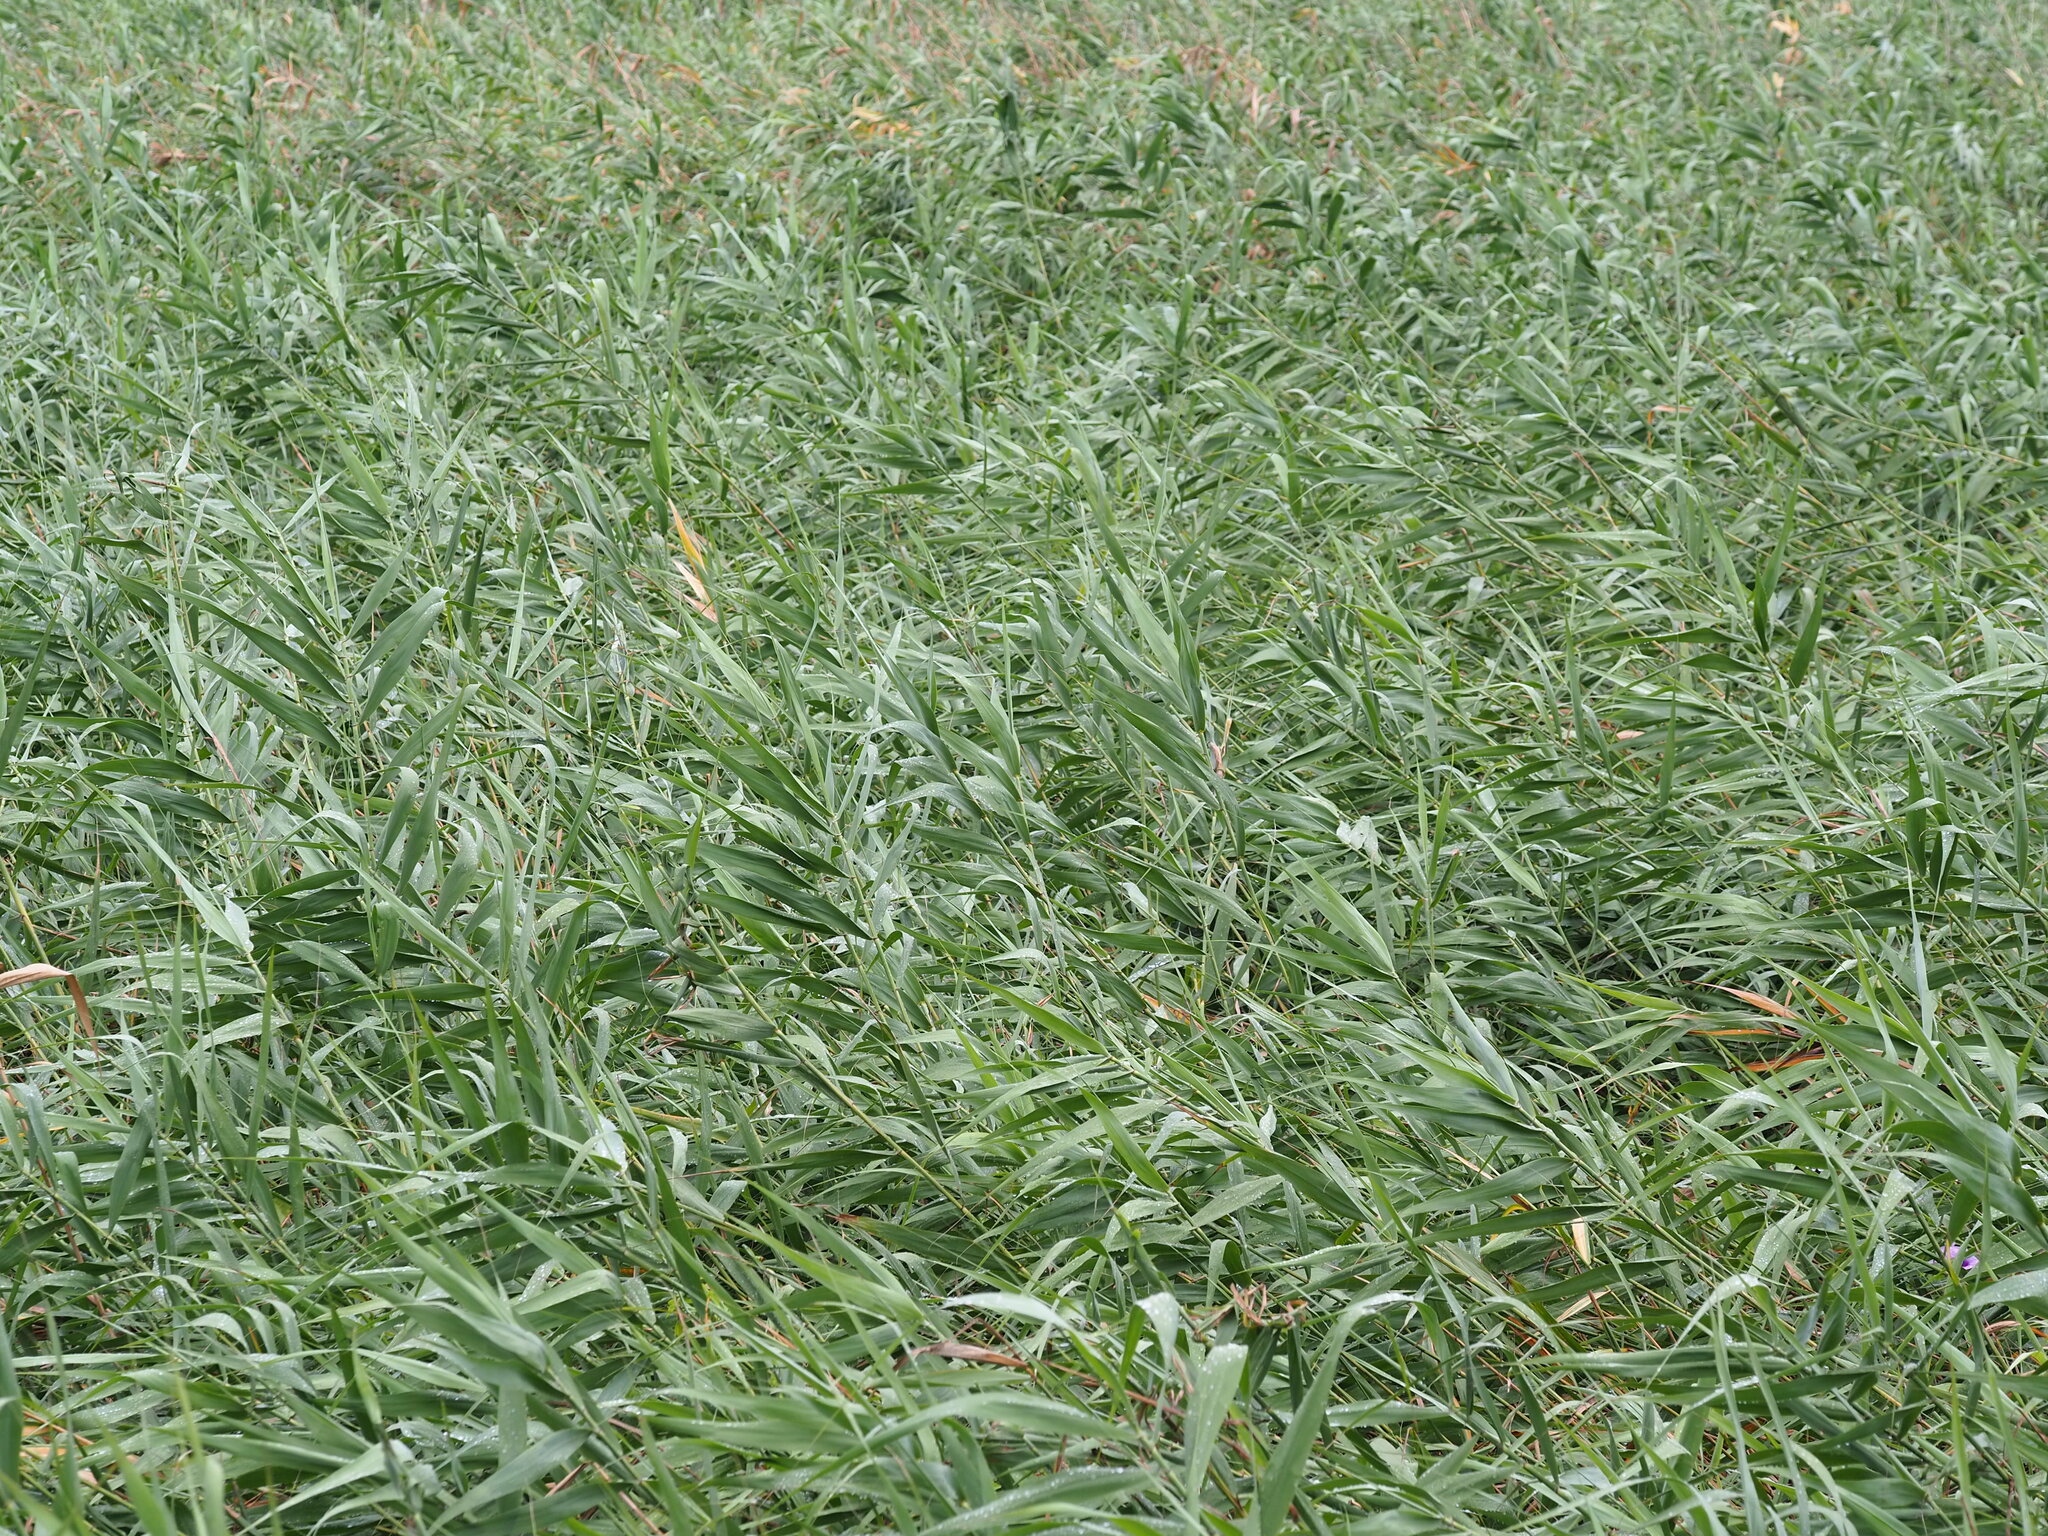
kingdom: Plantae
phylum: Tracheophyta
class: Liliopsida
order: Poales
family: Poaceae
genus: Phragmites
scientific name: Phragmites australis
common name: Common reed
